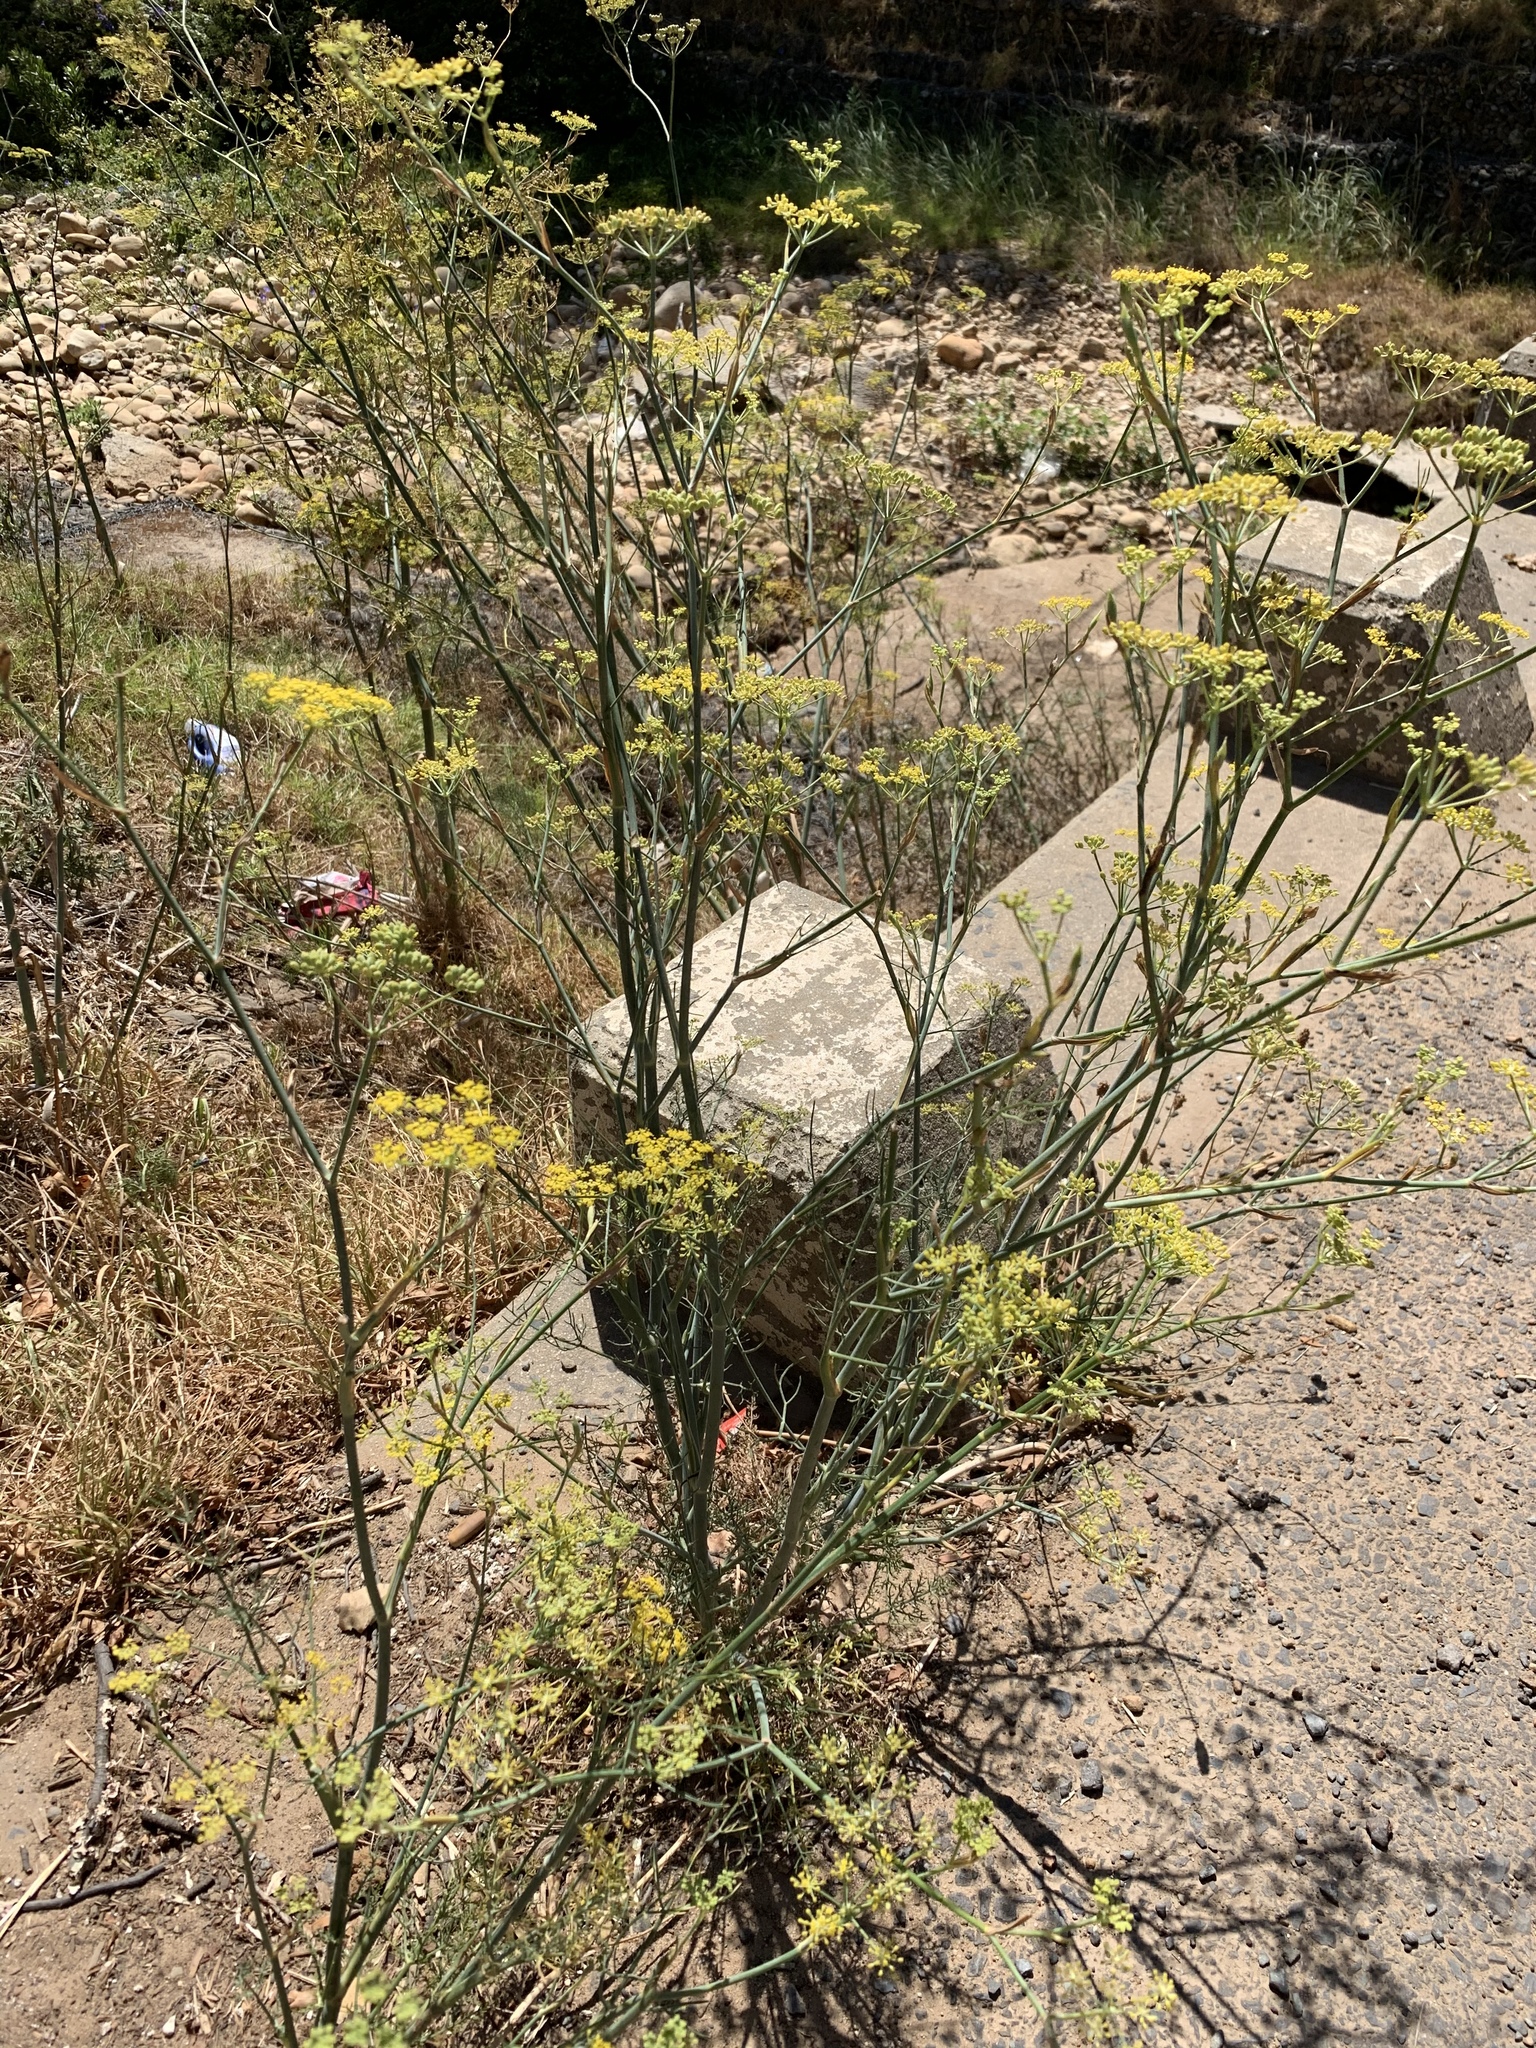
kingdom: Plantae
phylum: Tracheophyta
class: Magnoliopsida
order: Apiales
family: Apiaceae
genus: Foeniculum
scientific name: Foeniculum vulgare
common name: Fennel
